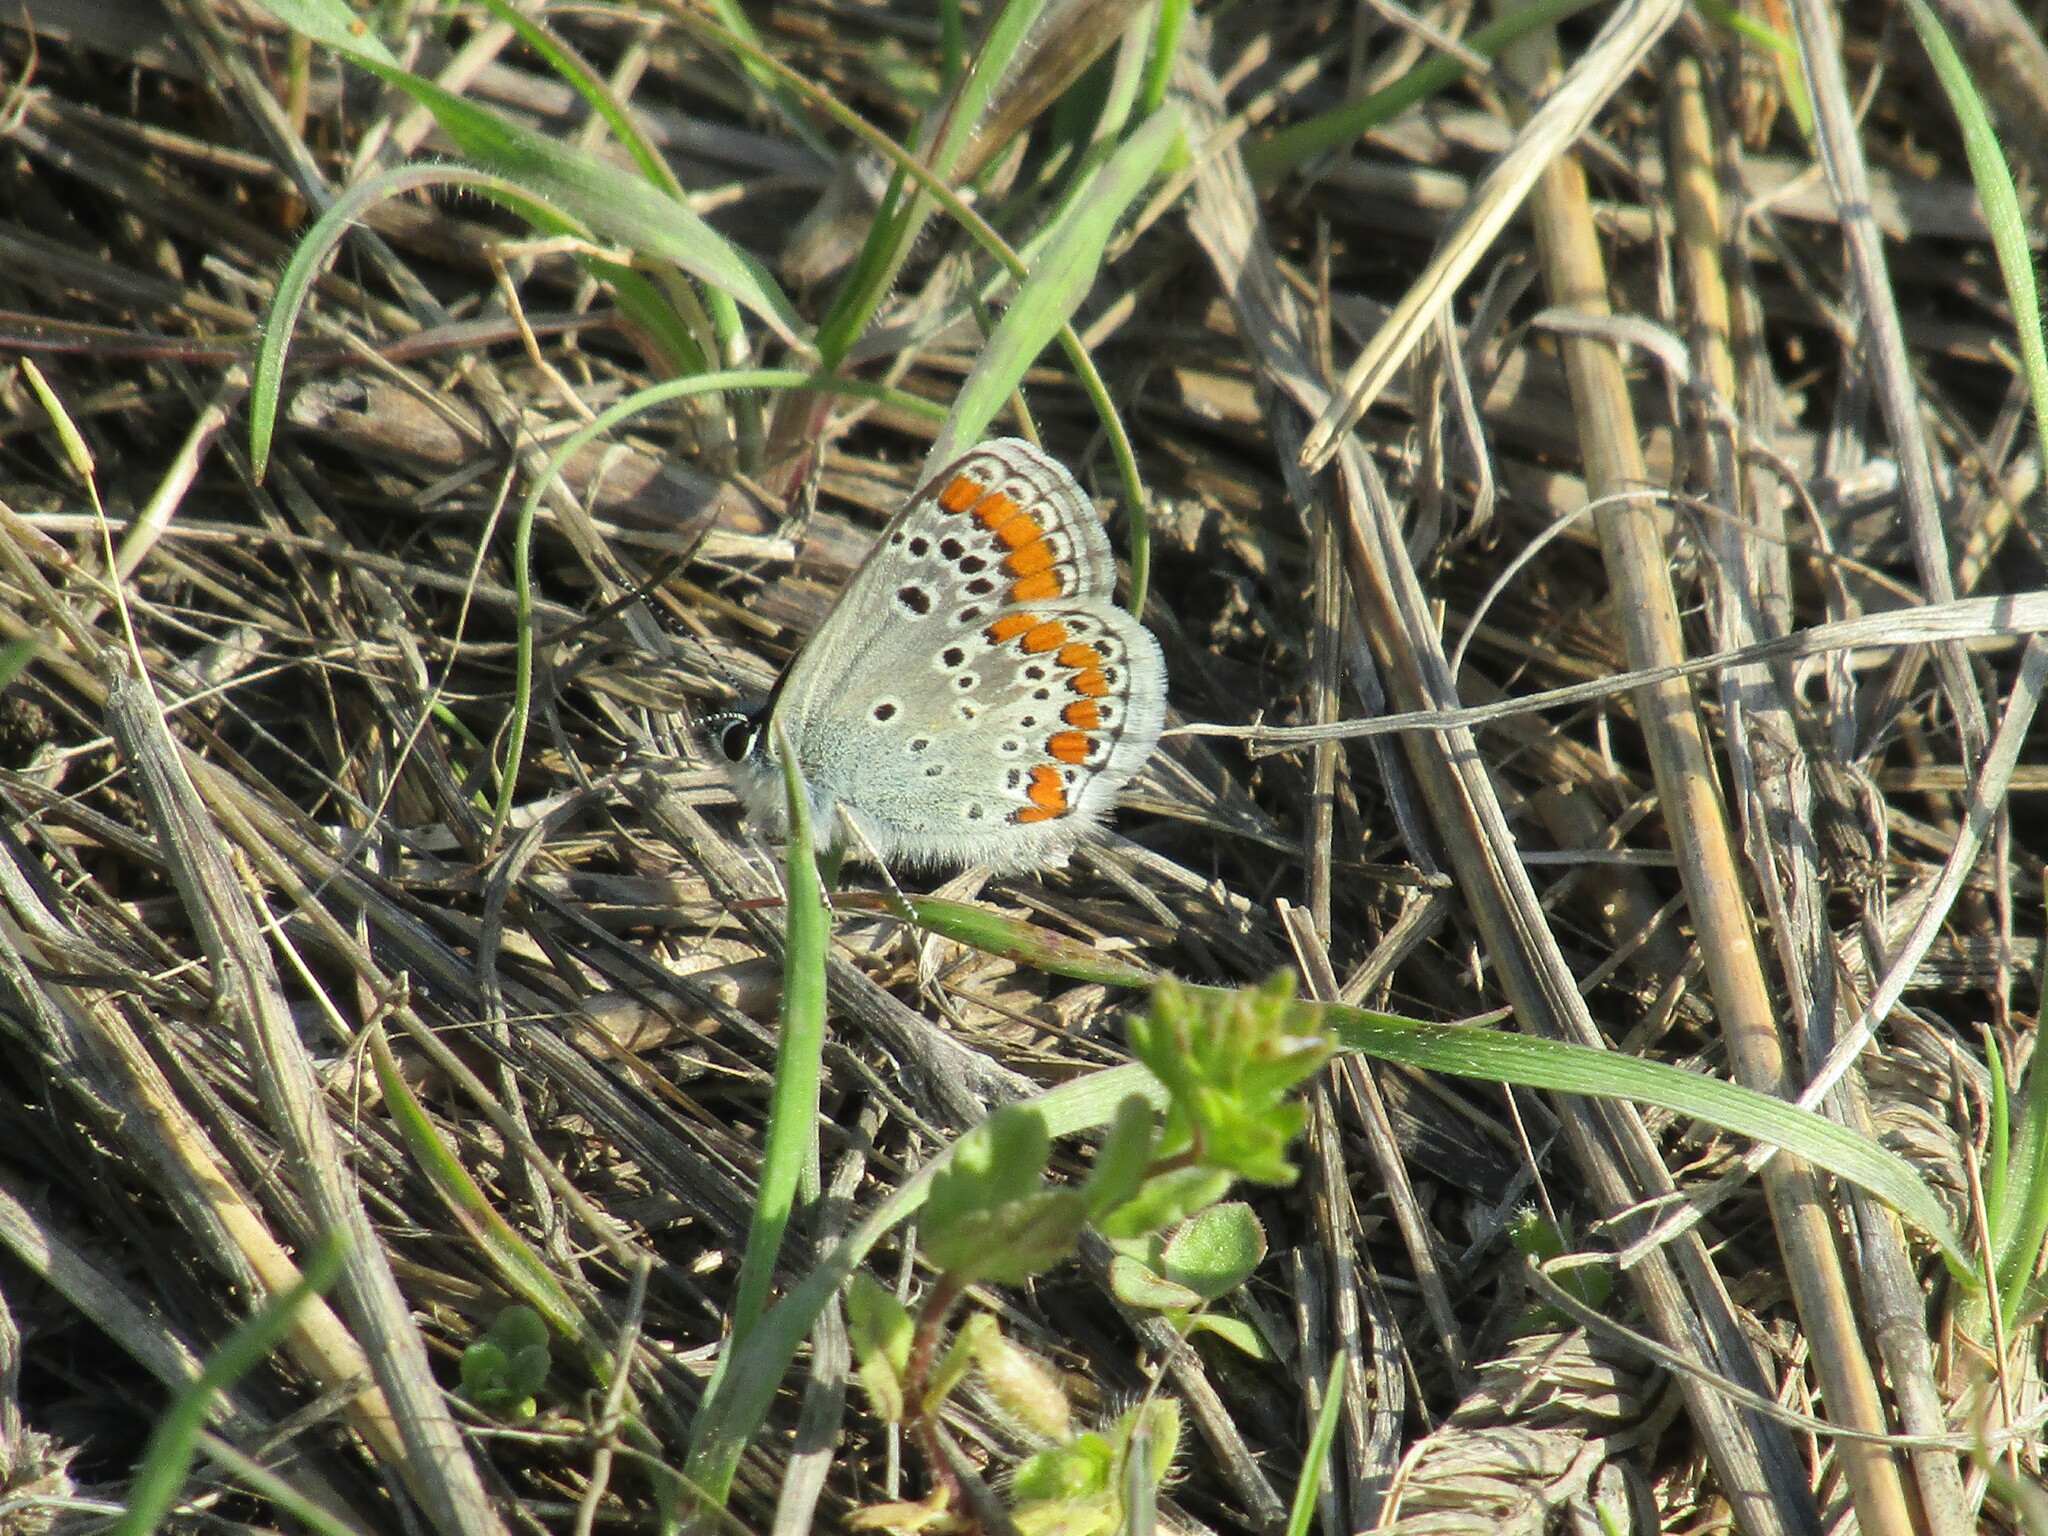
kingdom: Animalia
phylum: Arthropoda
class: Insecta
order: Lepidoptera
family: Lycaenidae
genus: Aricia
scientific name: Aricia agestis
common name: Brown argus
